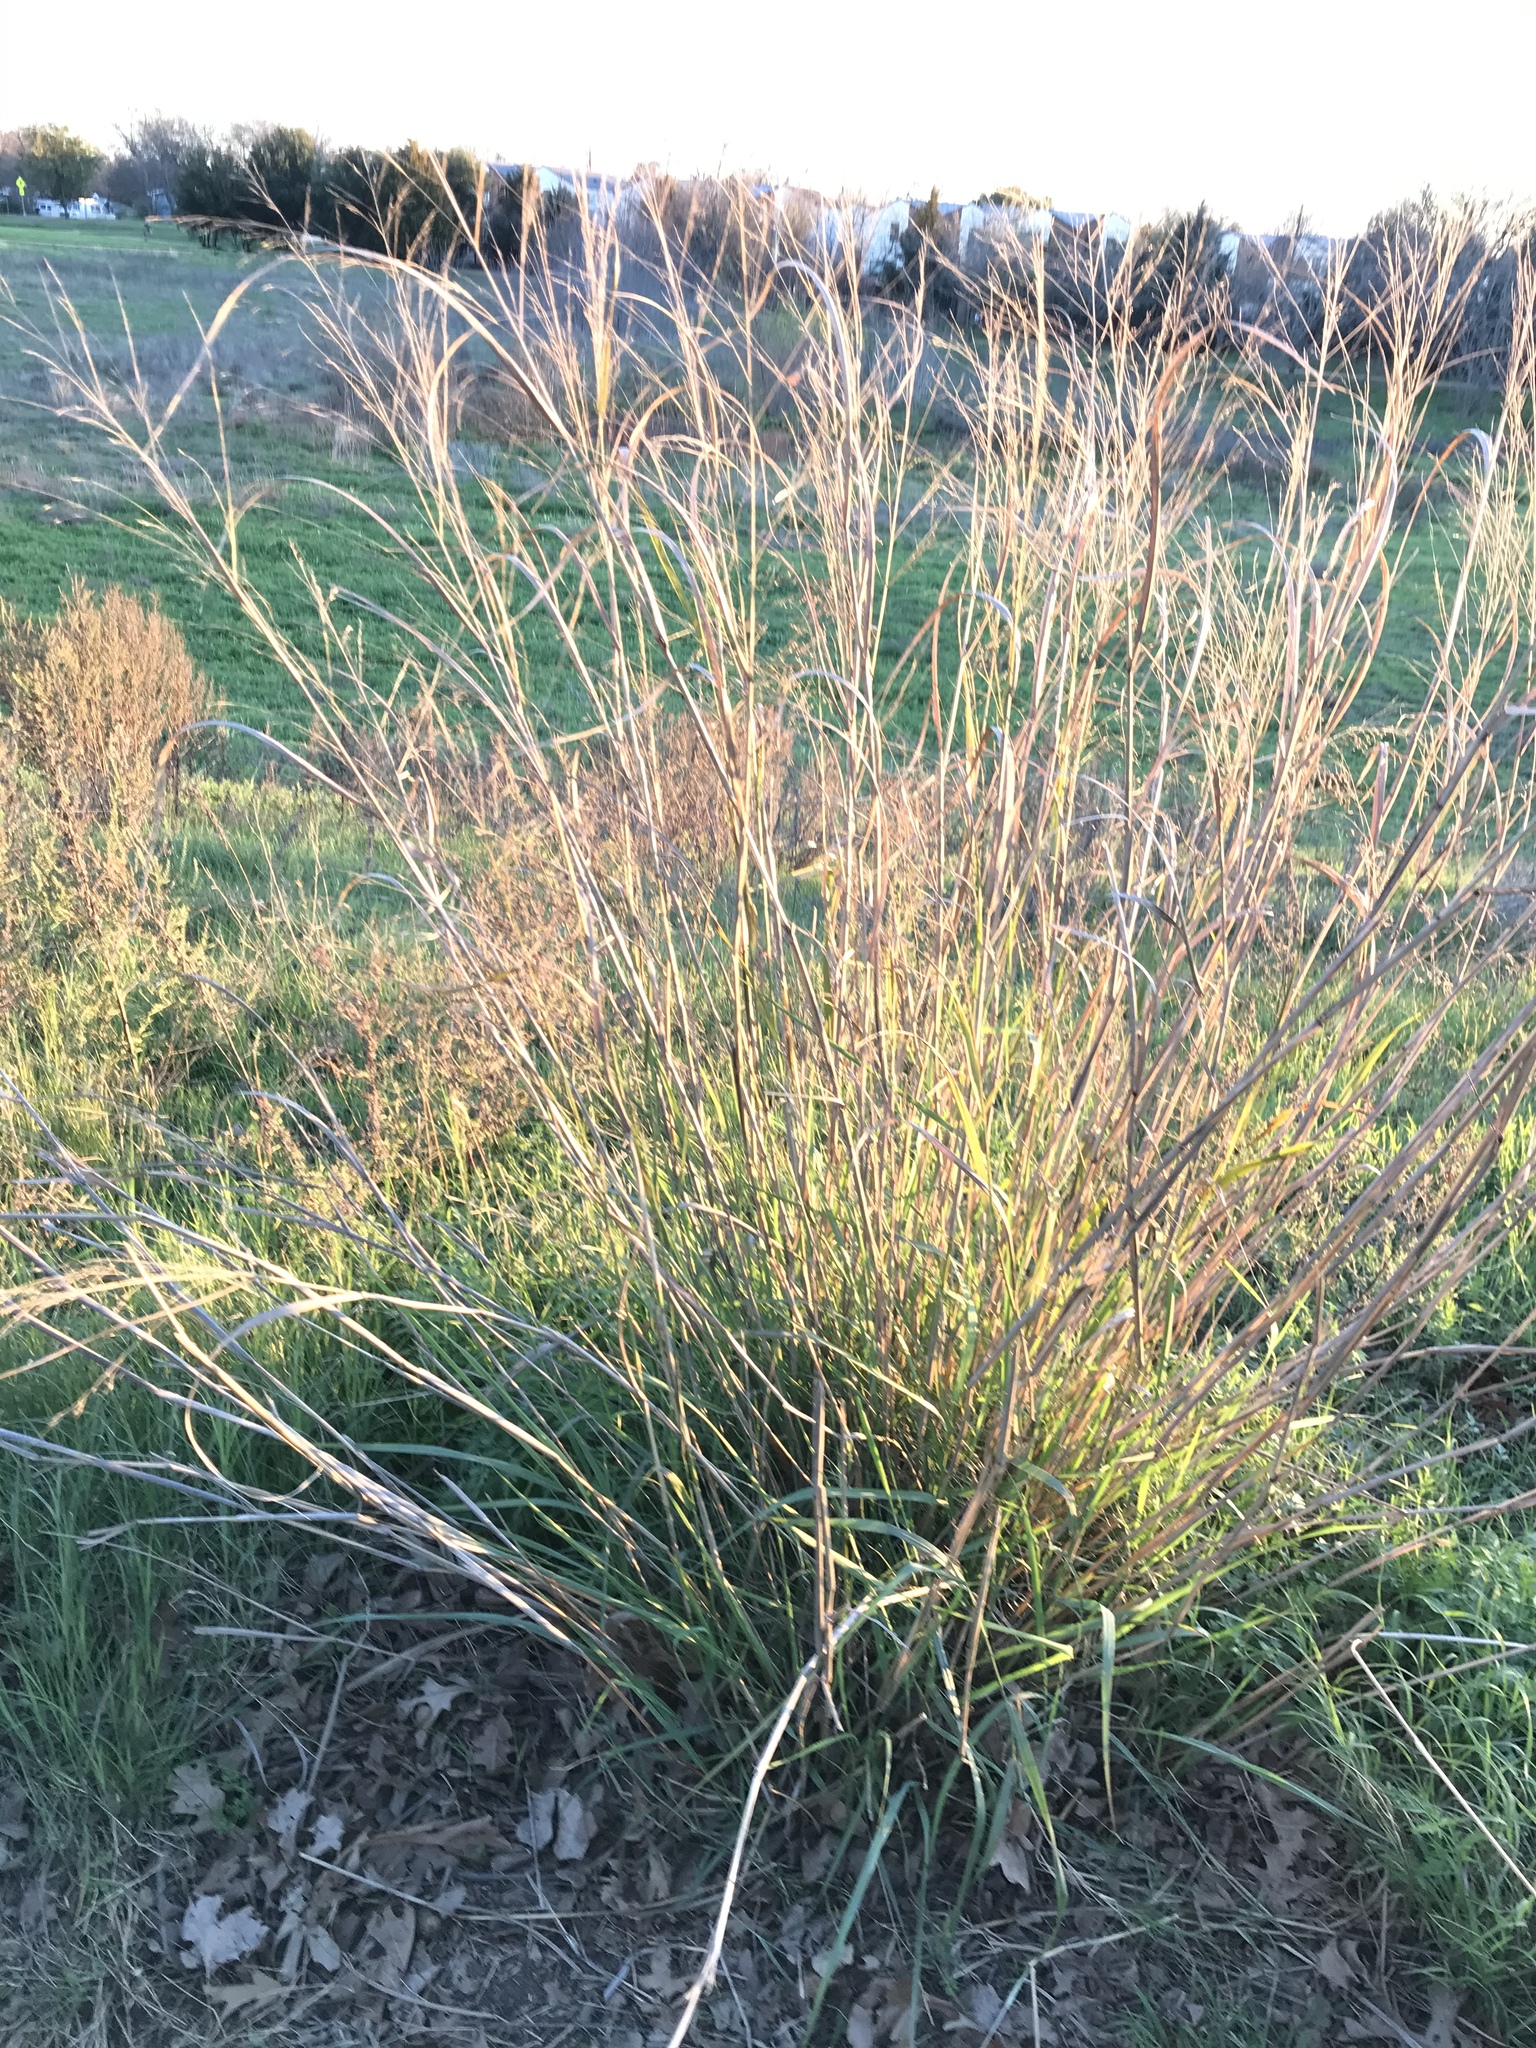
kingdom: Plantae
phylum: Tracheophyta
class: Liliopsida
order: Poales
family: Poaceae
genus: Panicum
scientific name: Panicum virgatum
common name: Switchgrass
